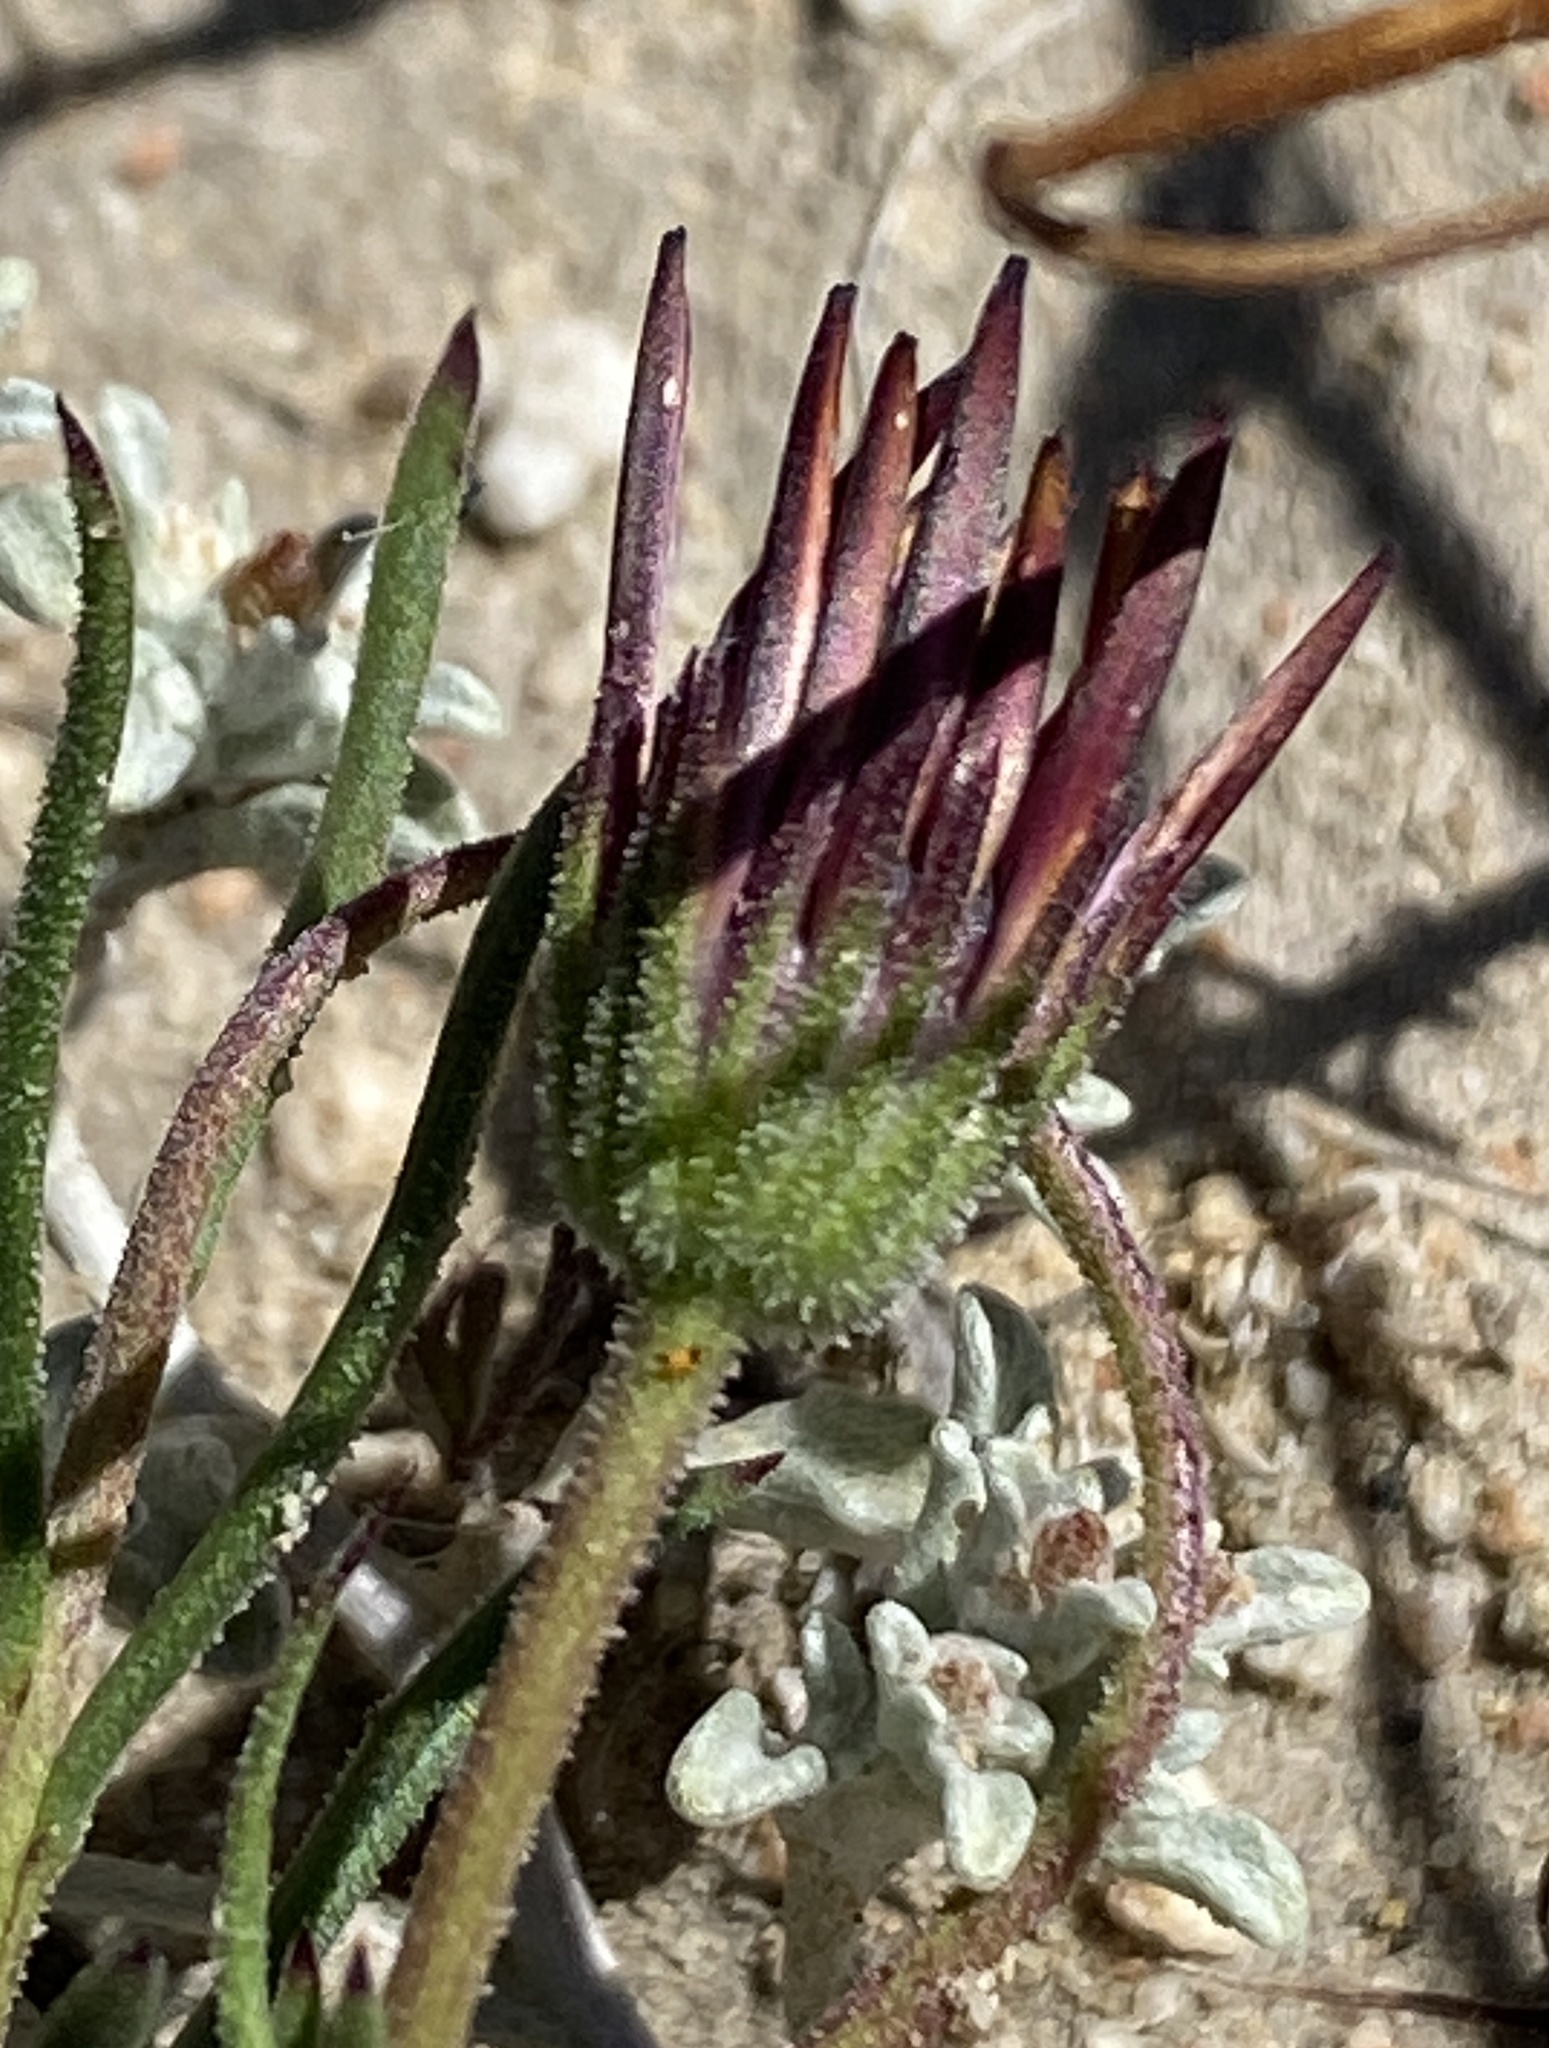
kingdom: Plantae
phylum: Tracheophyta
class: Magnoliopsida
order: Asterales
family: Asteraceae
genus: Dimorphotheca
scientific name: Dimorphotheca montana
